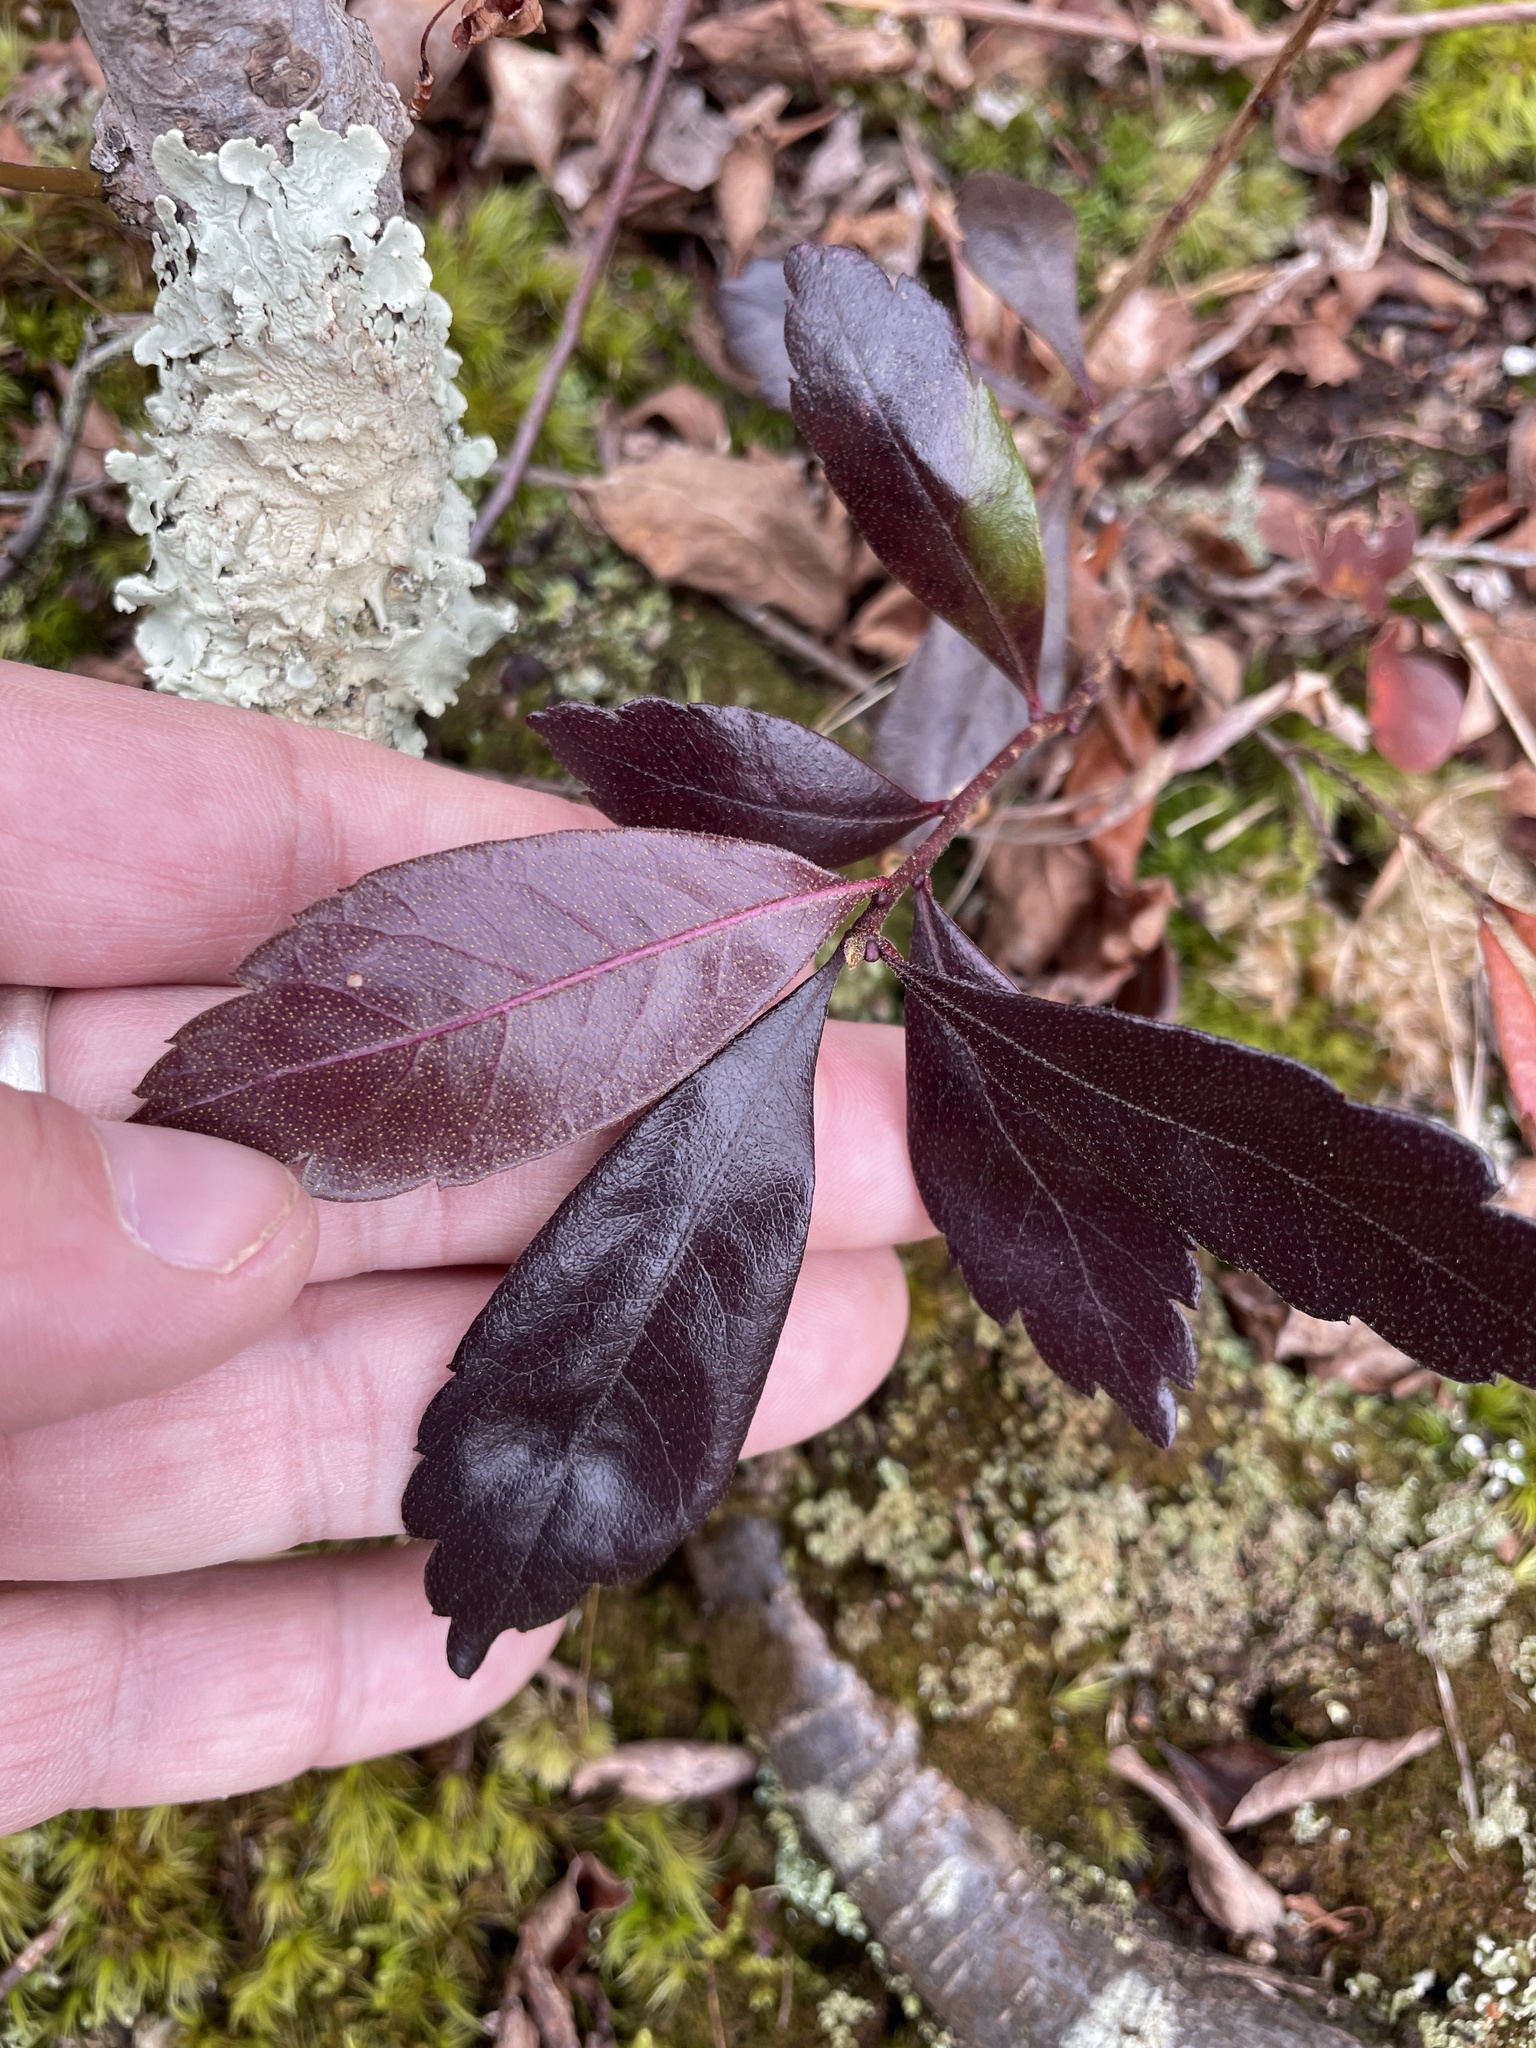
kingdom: Plantae
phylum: Tracheophyta
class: Magnoliopsida
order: Fagales
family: Myricaceae
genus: Morella
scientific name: Morella pensylvanica
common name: Northern bayberry
